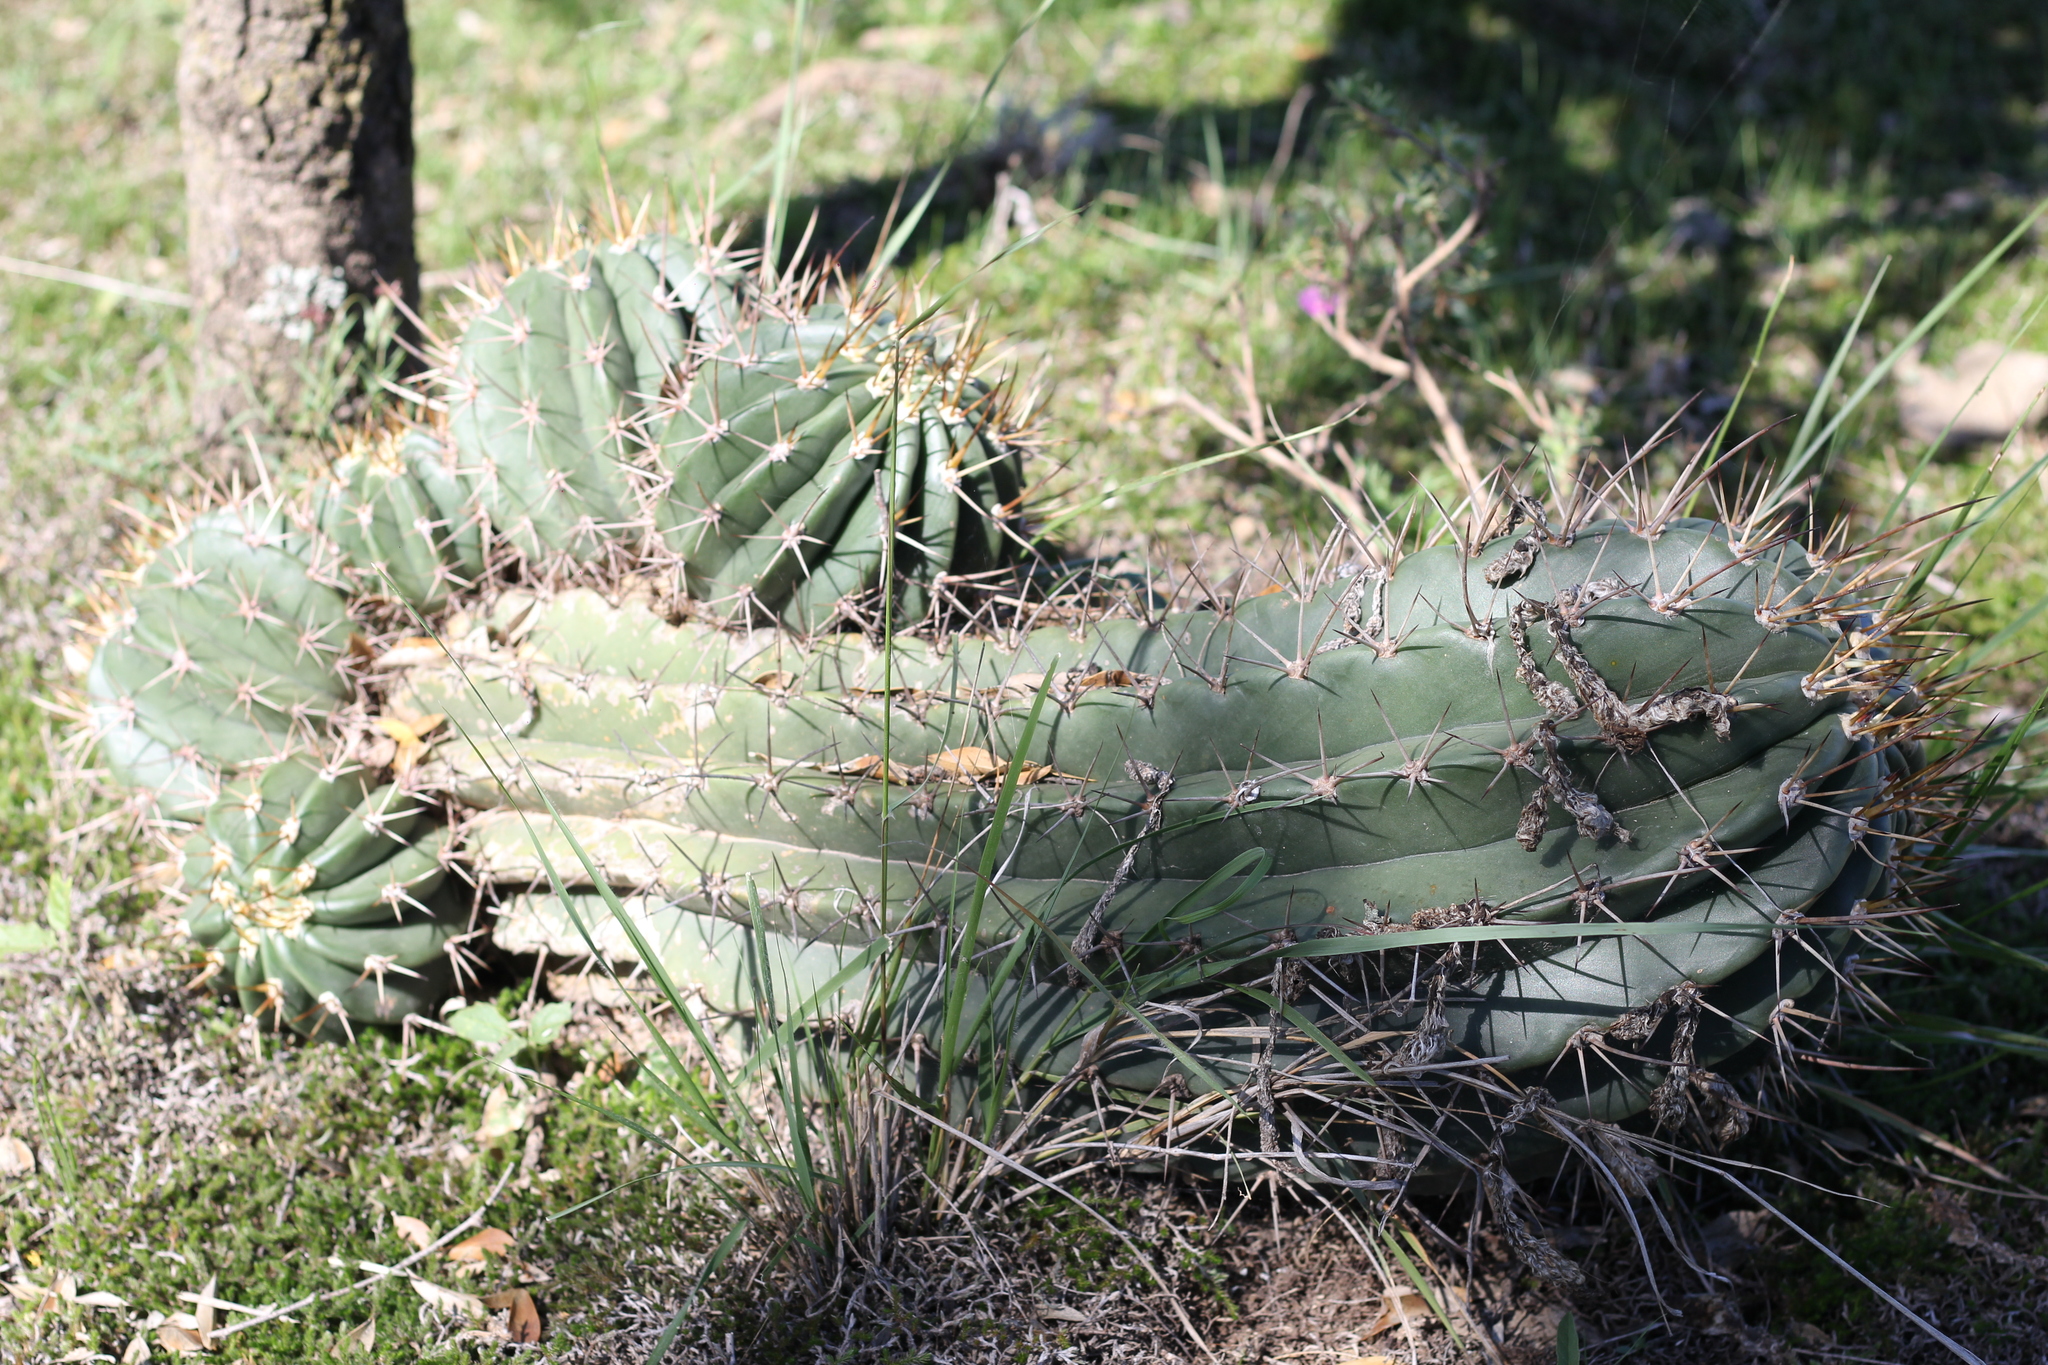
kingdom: Plantae
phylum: Tracheophyta
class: Magnoliopsida
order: Caryophyllales
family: Cactaceae
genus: Acanthocalycium
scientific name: Acanthocalycium rhodotrichum
